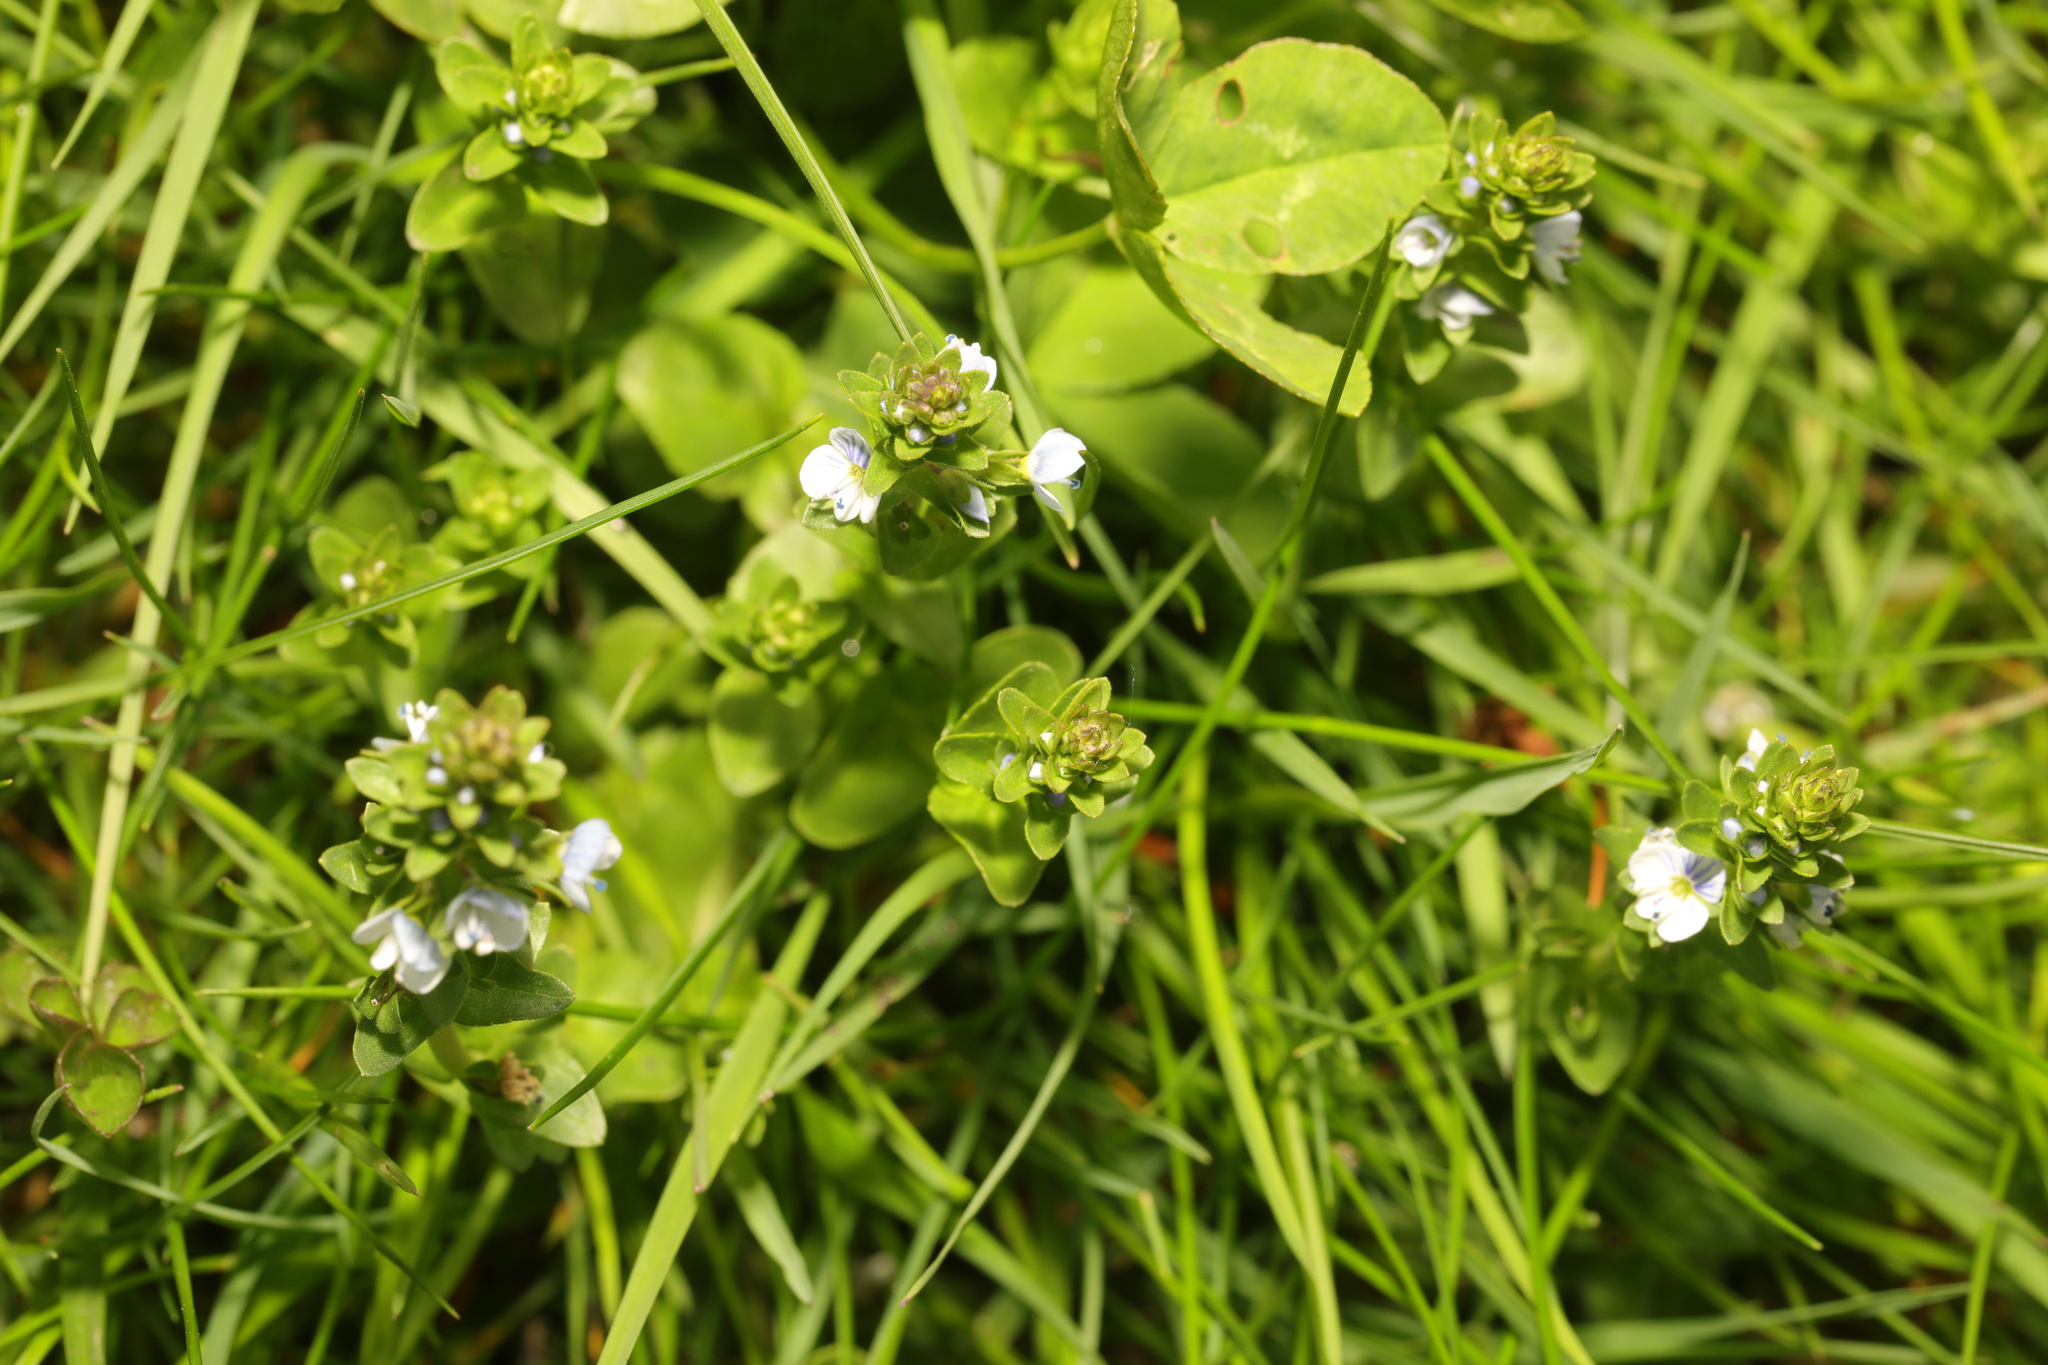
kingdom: Plantae
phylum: Tracheophyta
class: Magnoliopsida
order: Lamiales
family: Plantaginaceae
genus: Veronica
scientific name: Veronica serpyllifolia
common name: Thyme-leaved speedwell
